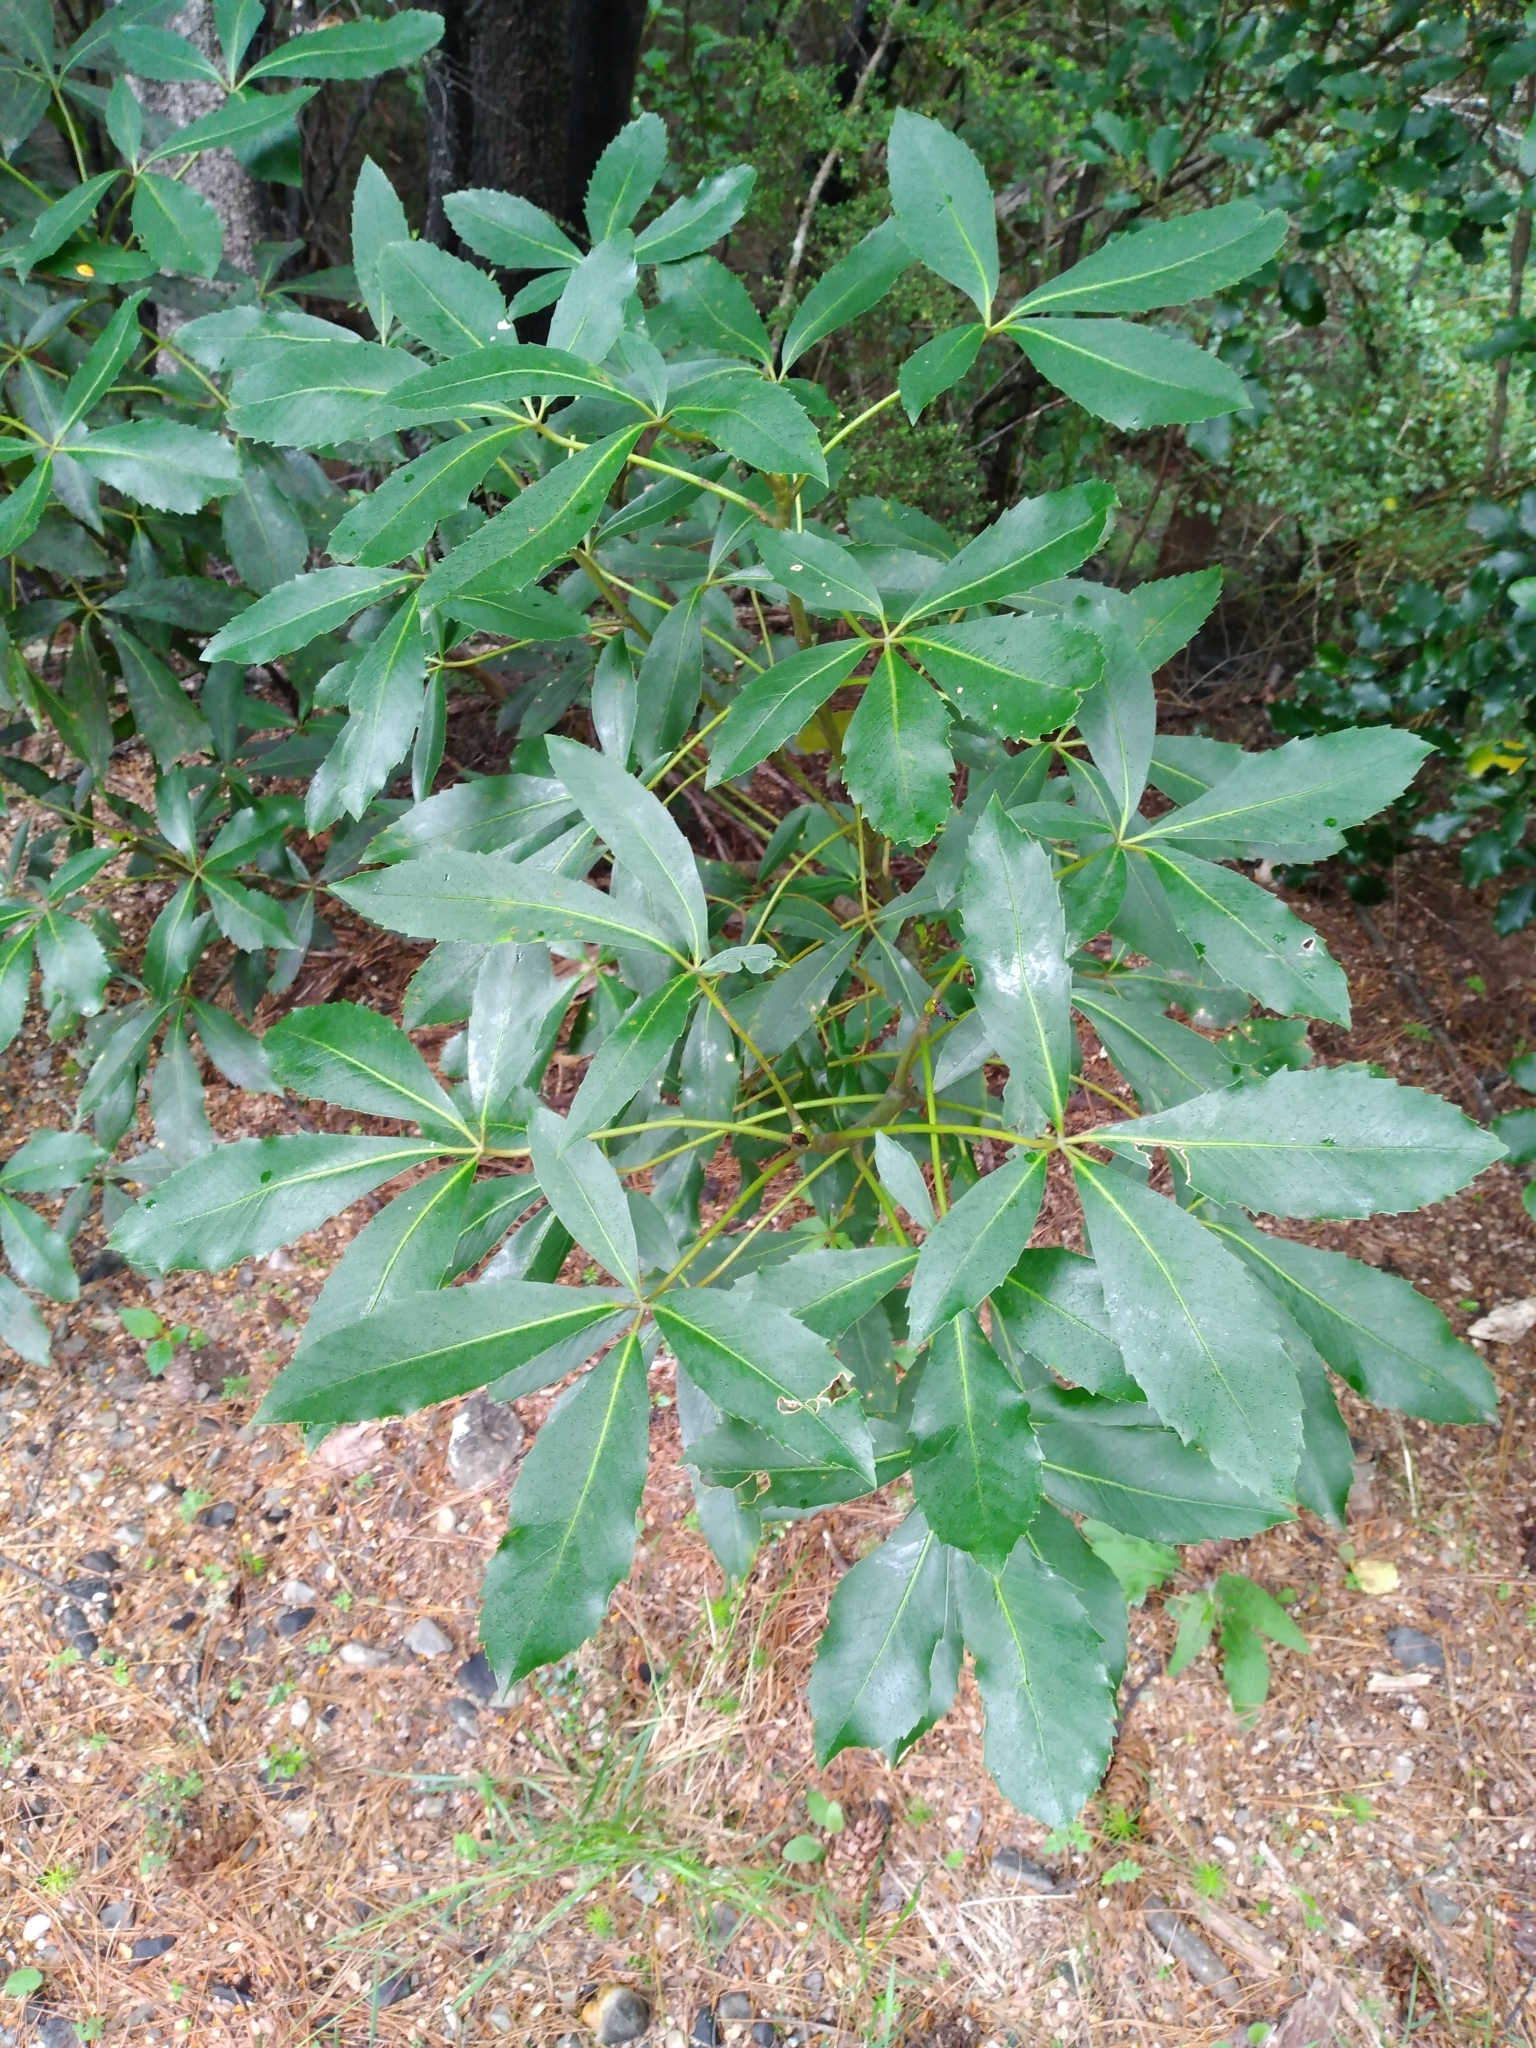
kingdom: Plantae
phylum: Tracheophyta
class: Magnoliopsida
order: Apiales
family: Araliaceae
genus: Neopanax
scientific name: Neopanax colensoi
